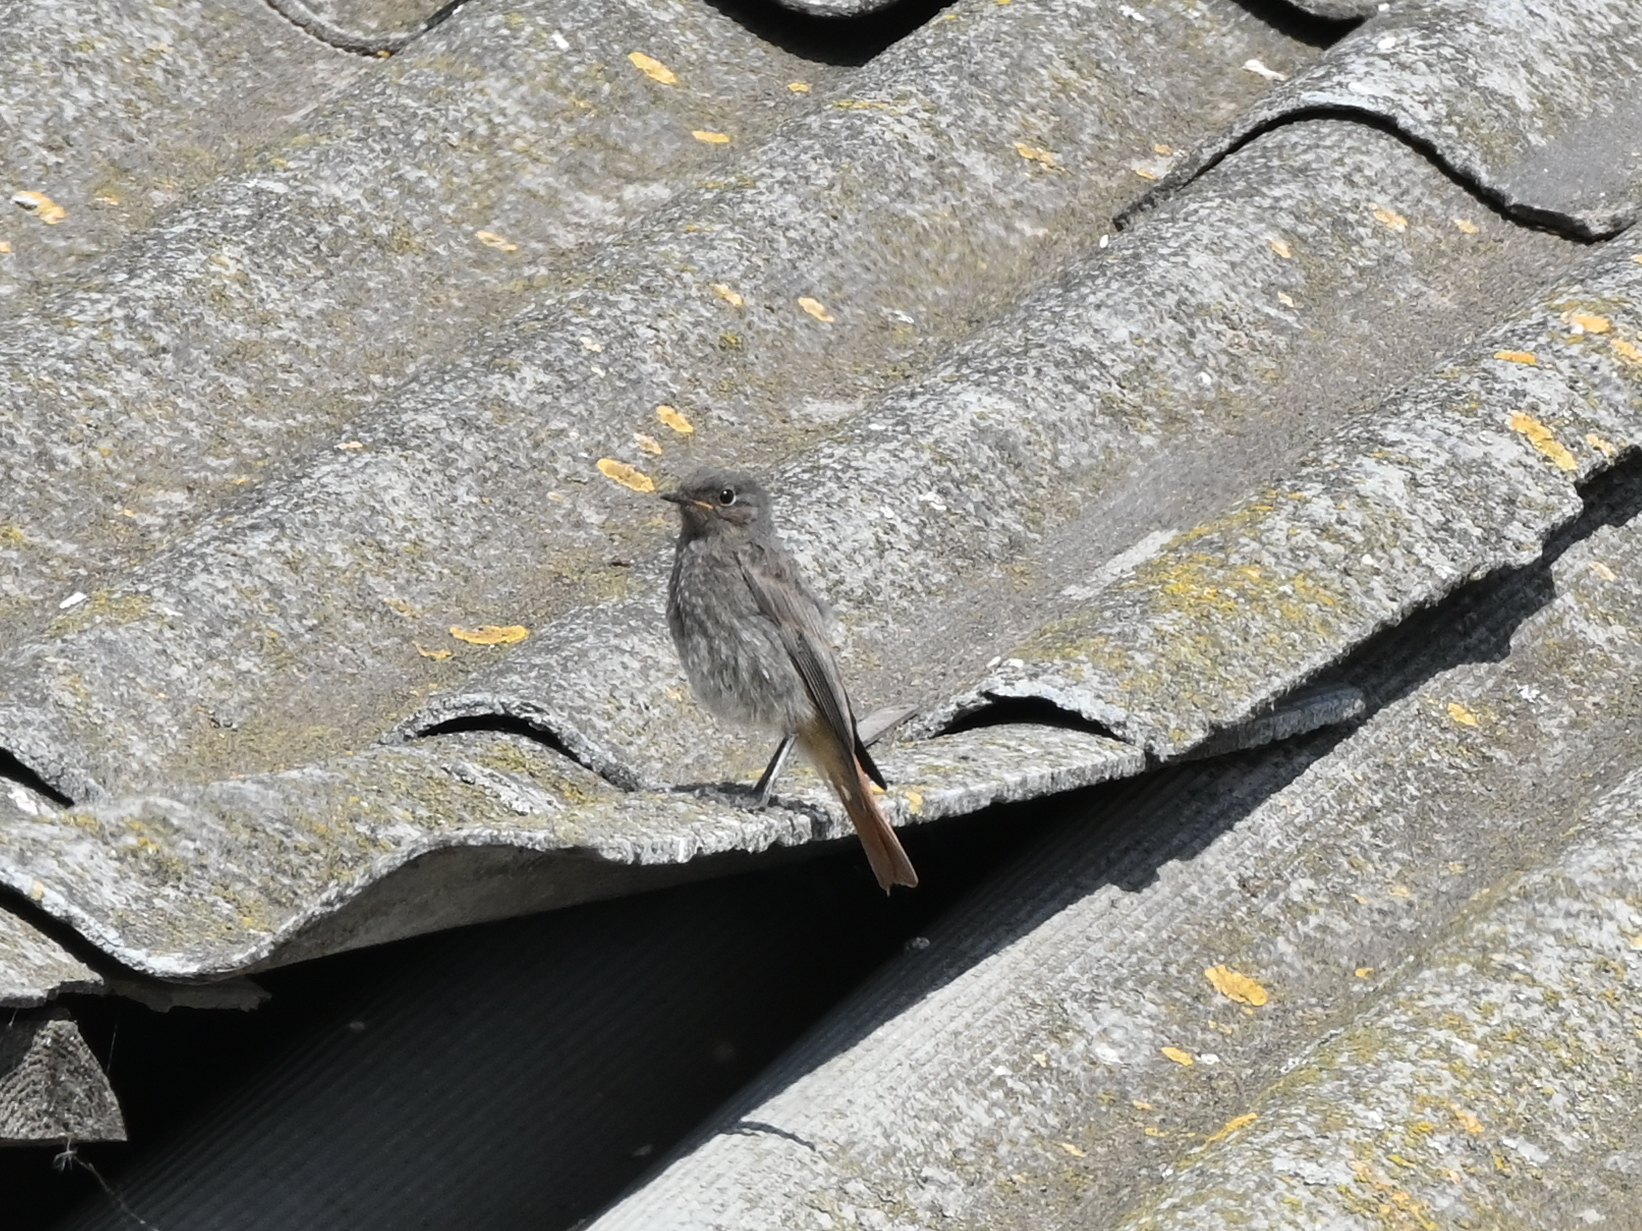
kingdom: Animalia
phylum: Chordata
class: Aves
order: Passeriformes
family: Muscicapidae
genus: Phoenicurus
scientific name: Phoenicurus ochruros
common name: Black redstart
